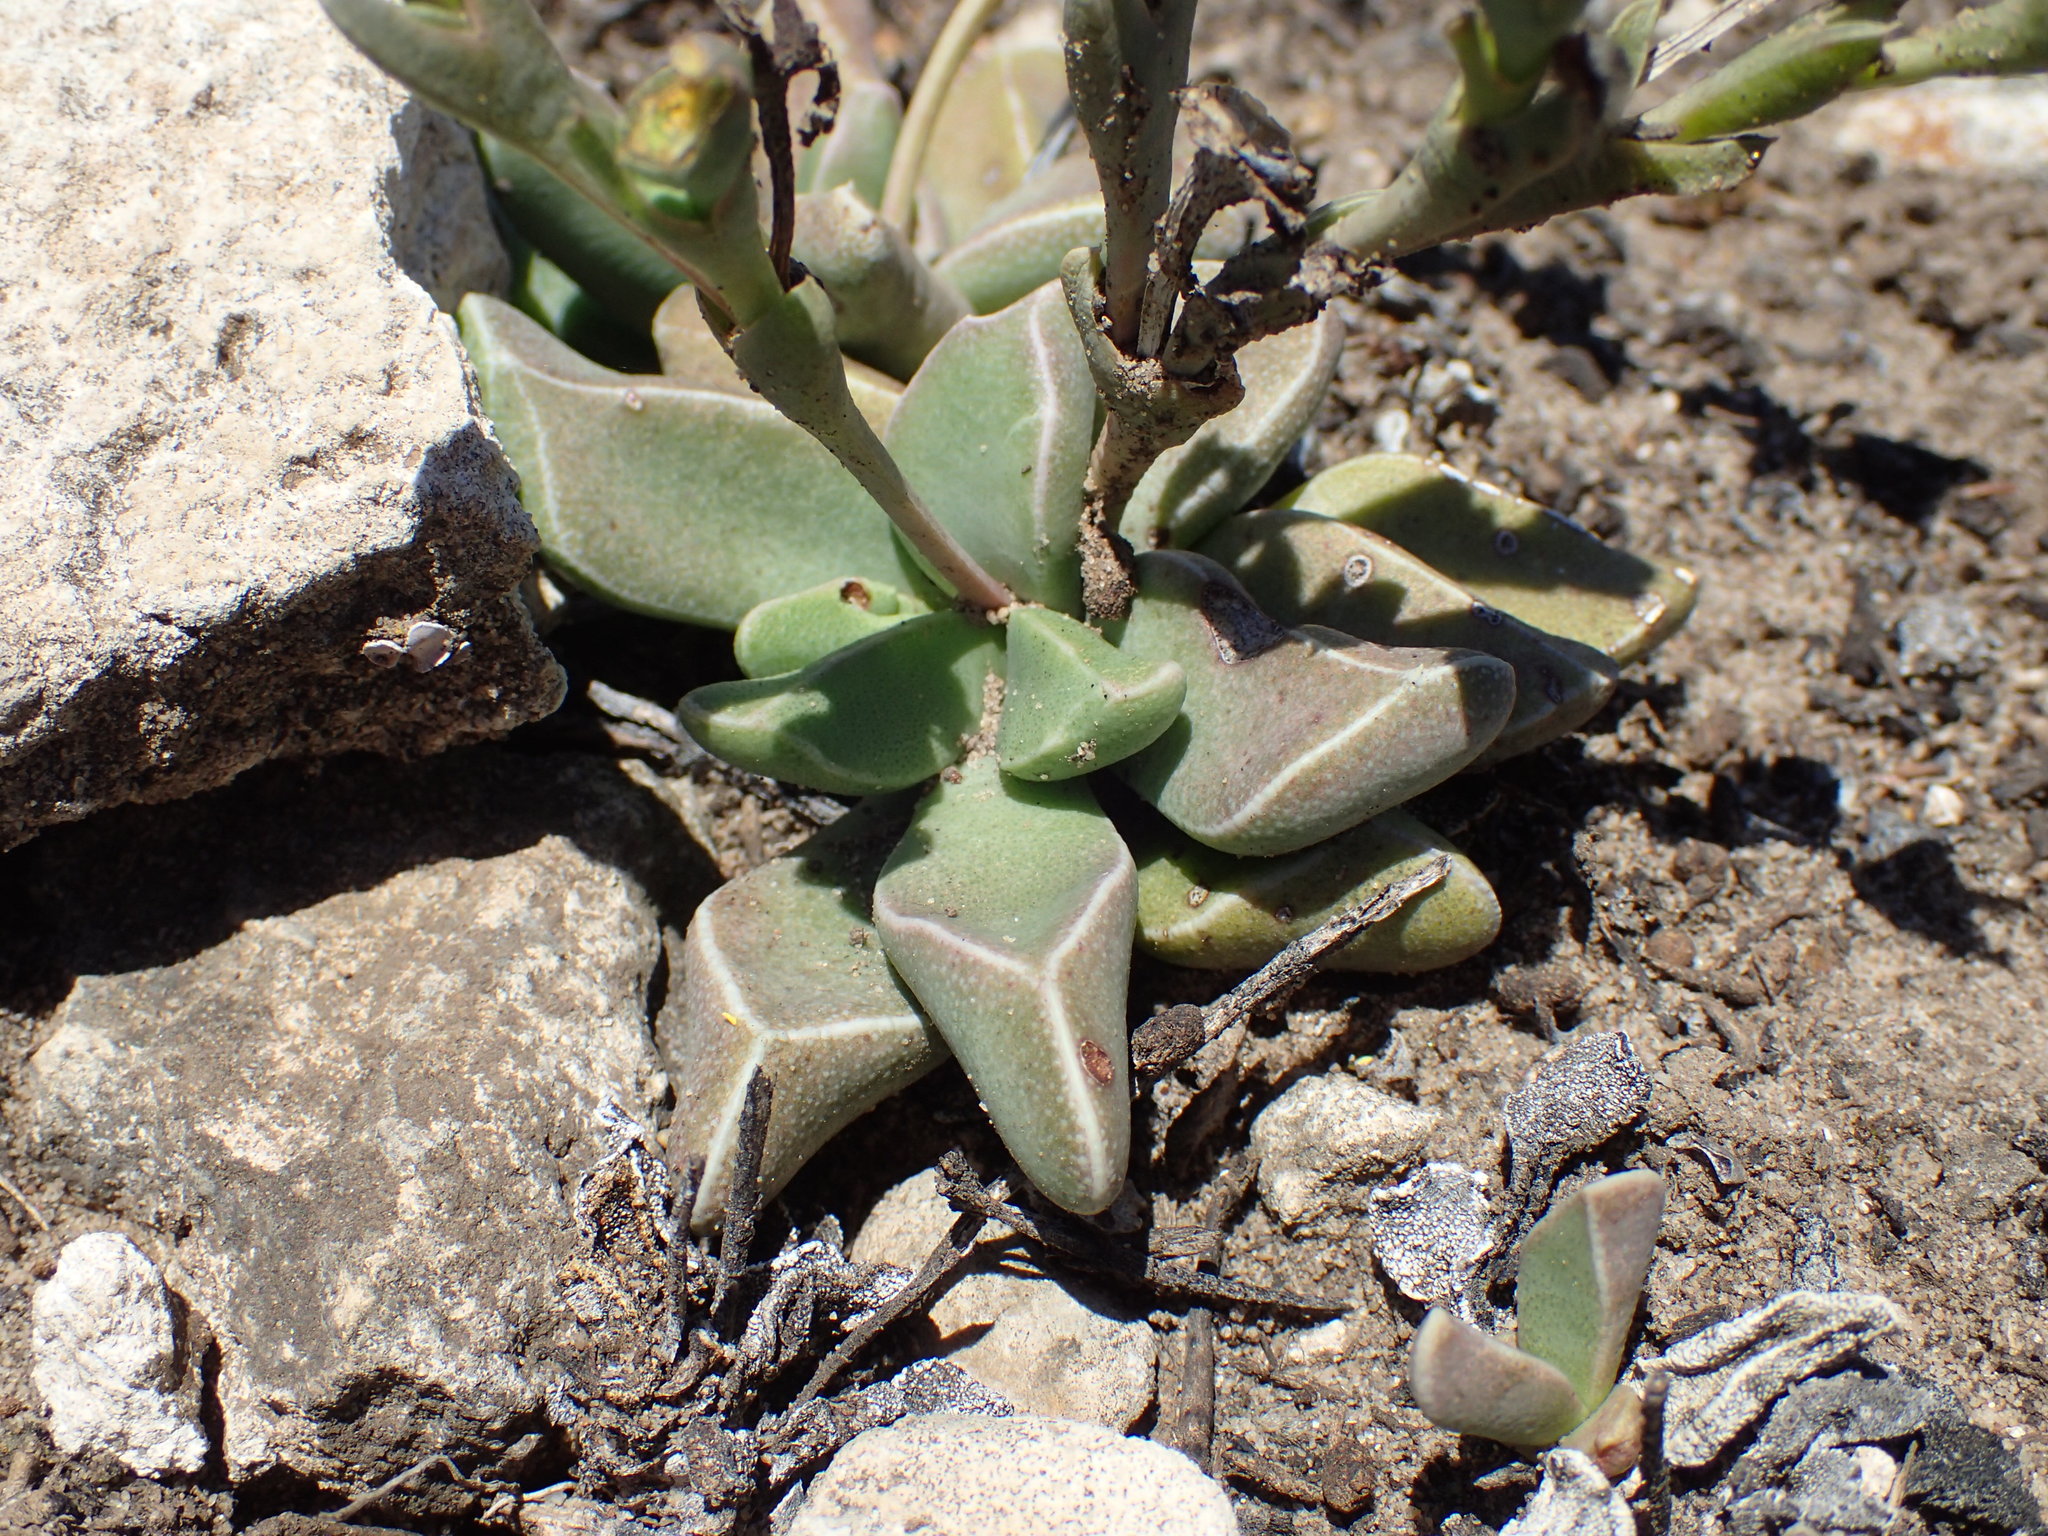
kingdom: Plantae
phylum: Tracheophyta
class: Magnoliopsida
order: Caryophyllales
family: Aizoaceae
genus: Dracophilus
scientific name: Dracophilus Rhombophyllum rhomboideum
